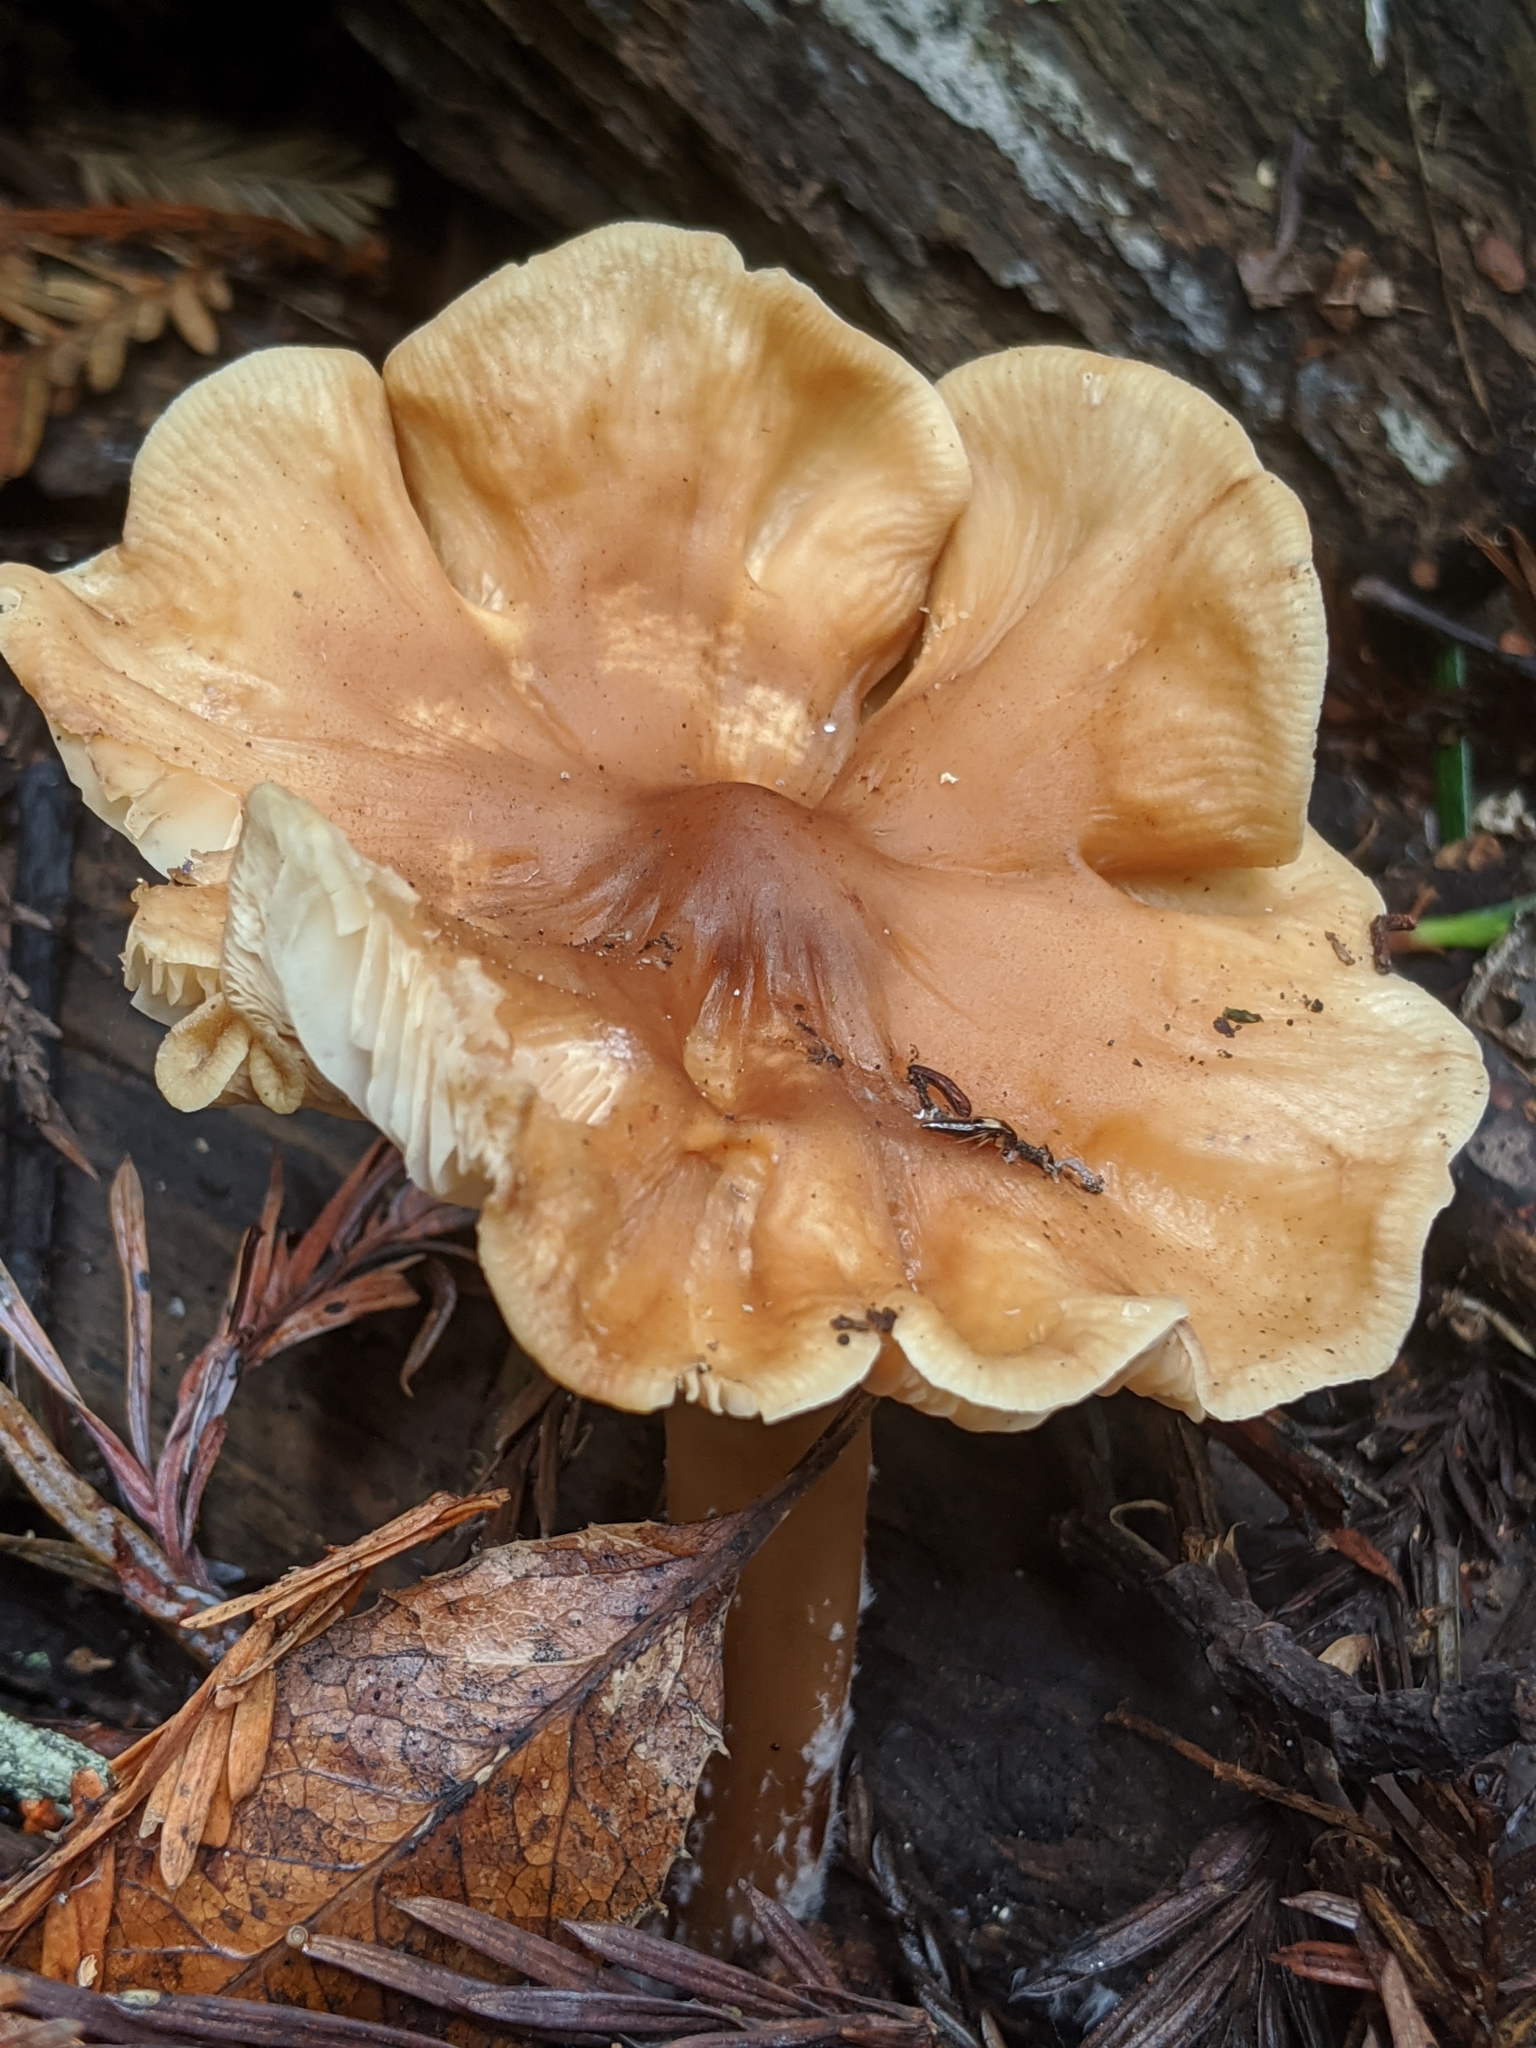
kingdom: Fungi
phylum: Basidiomycota
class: Agaricomycetes
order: Agaricales
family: Tricholomataceae
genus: Caulorhiza
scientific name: Caulorhiza umbonata
